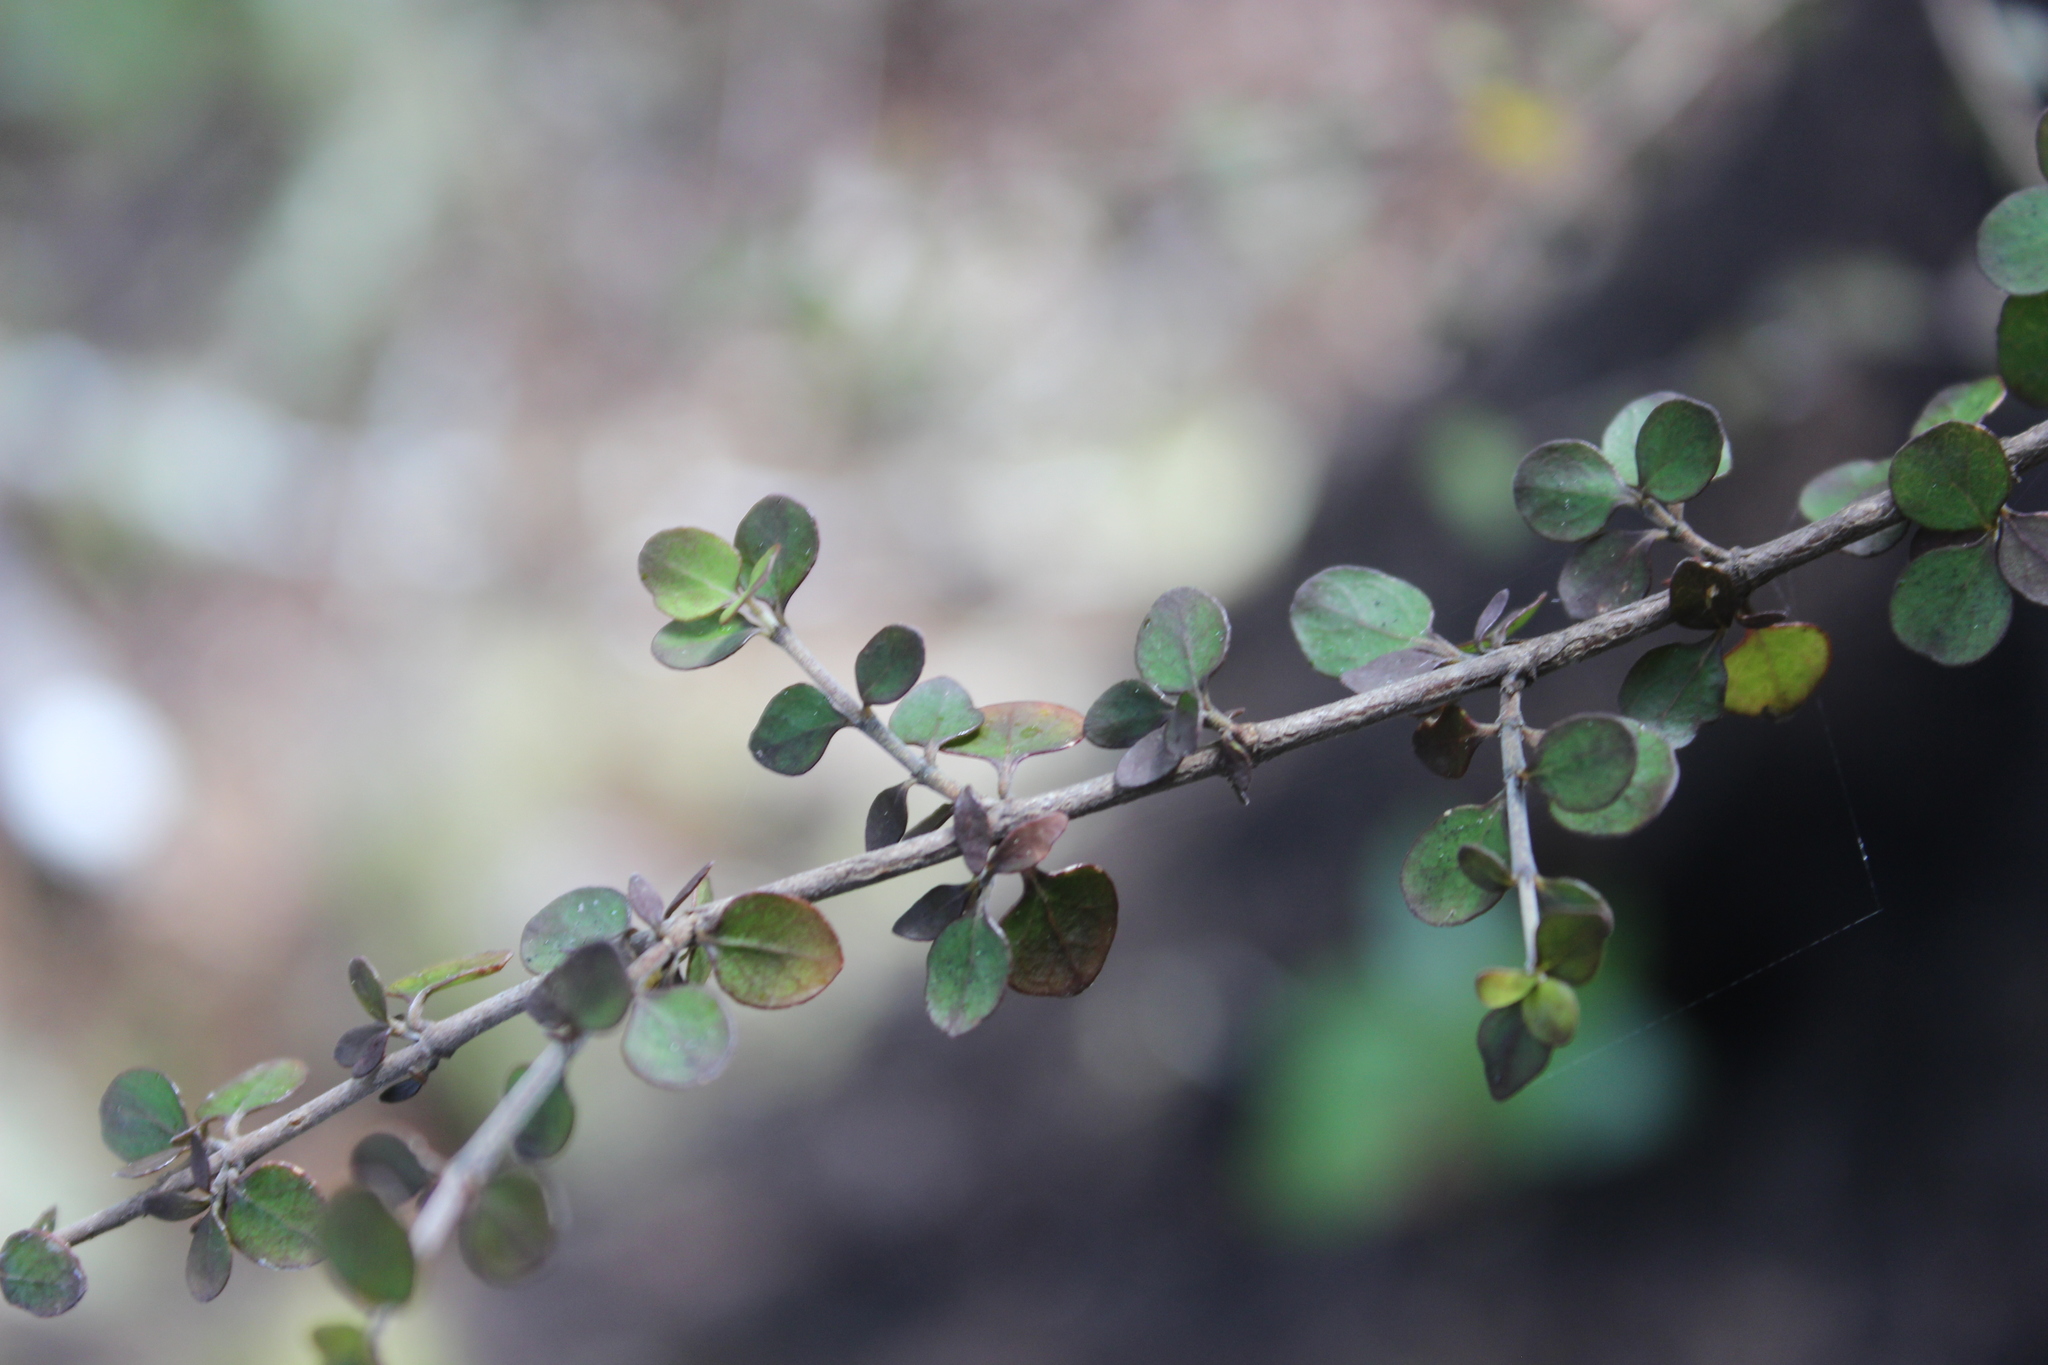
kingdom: Plantae
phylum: Tracheophyta
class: Magnoliopsida
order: Gentianales
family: Rubiaceae
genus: Coprosma
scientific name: Coprosma rhamnoides
